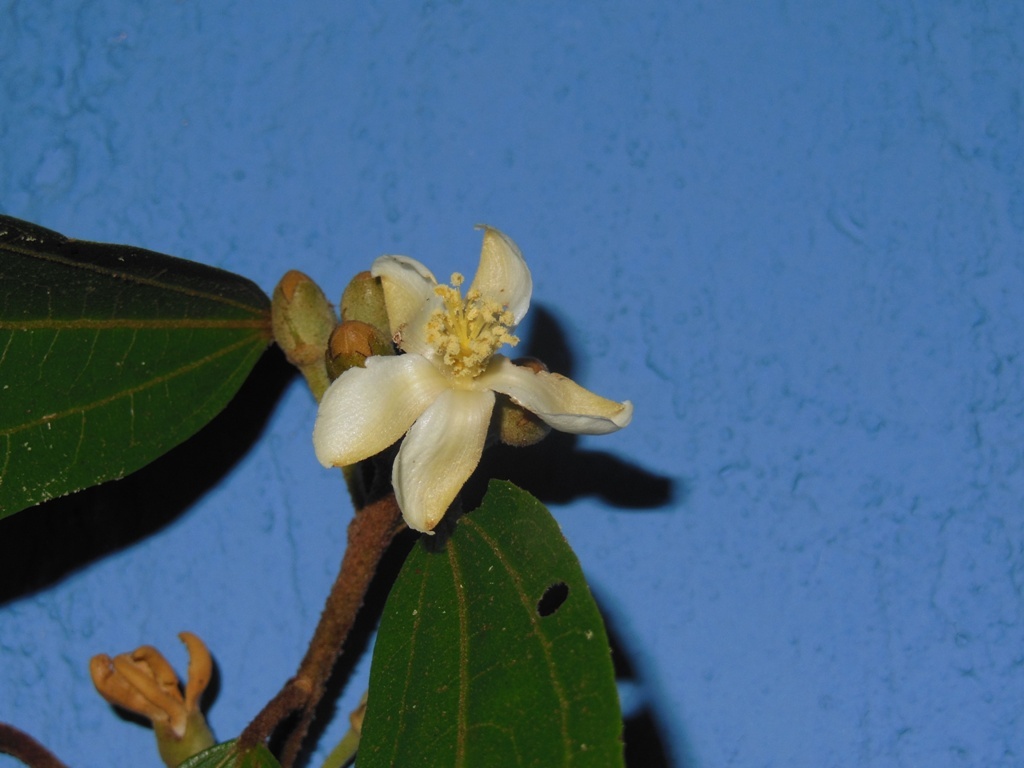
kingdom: Plantae
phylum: Tracheophyta
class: Magnoliopsida
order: Malvales
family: Malvaceae
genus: Hampea
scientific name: Hampea montebellensis
